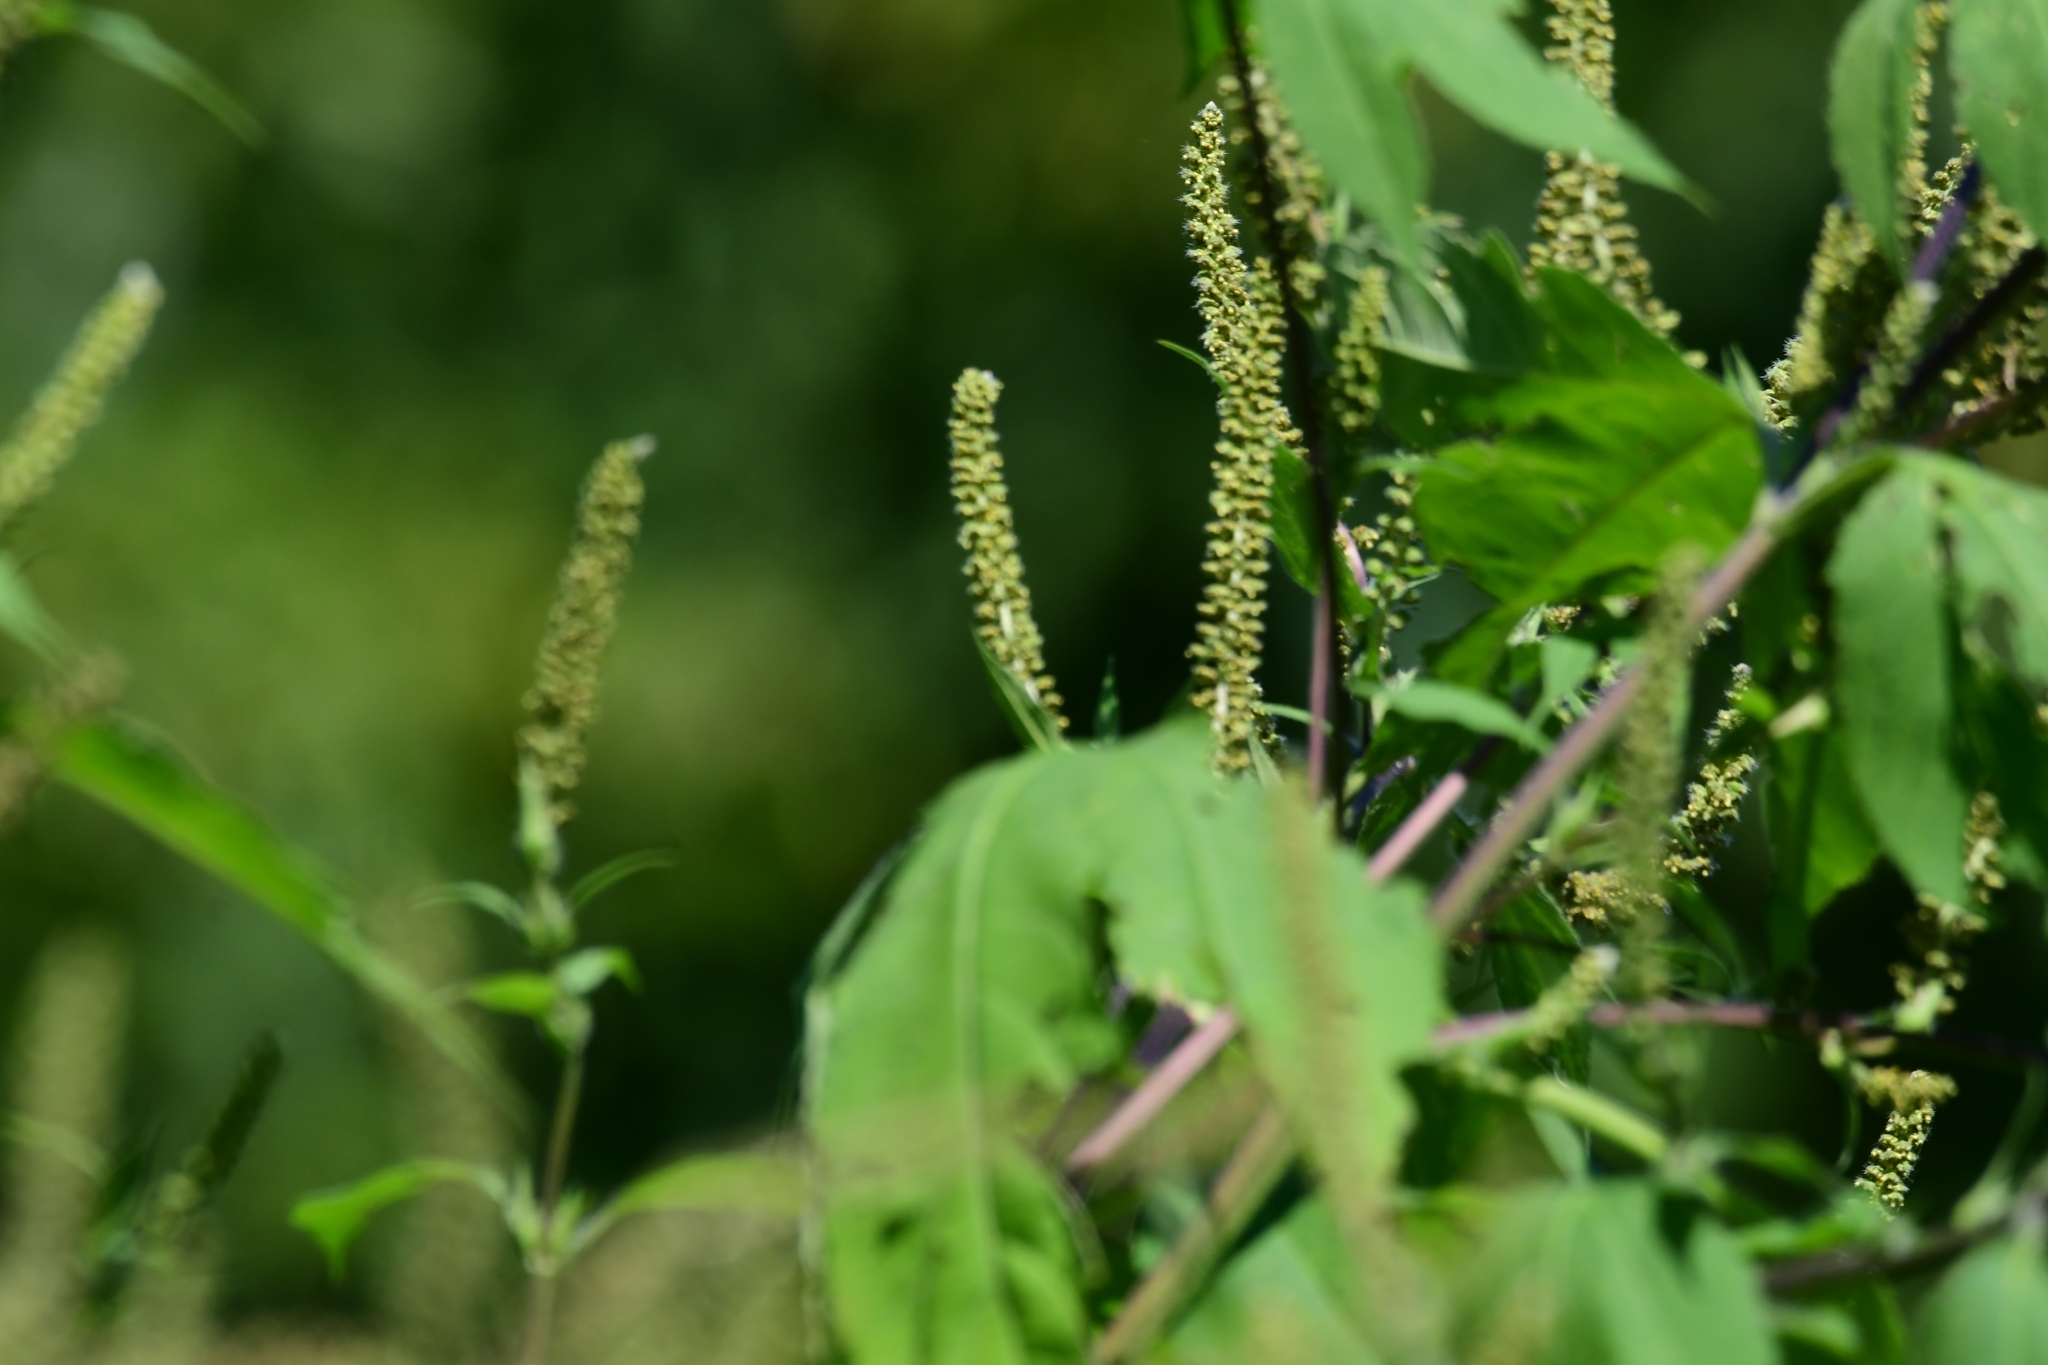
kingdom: Plantae
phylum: Tracheophyta
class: Magnoliopsida
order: Asterales
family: Asteraceae
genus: Ambrosia
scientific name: Ambrosia trifida
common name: Giant ragweed
